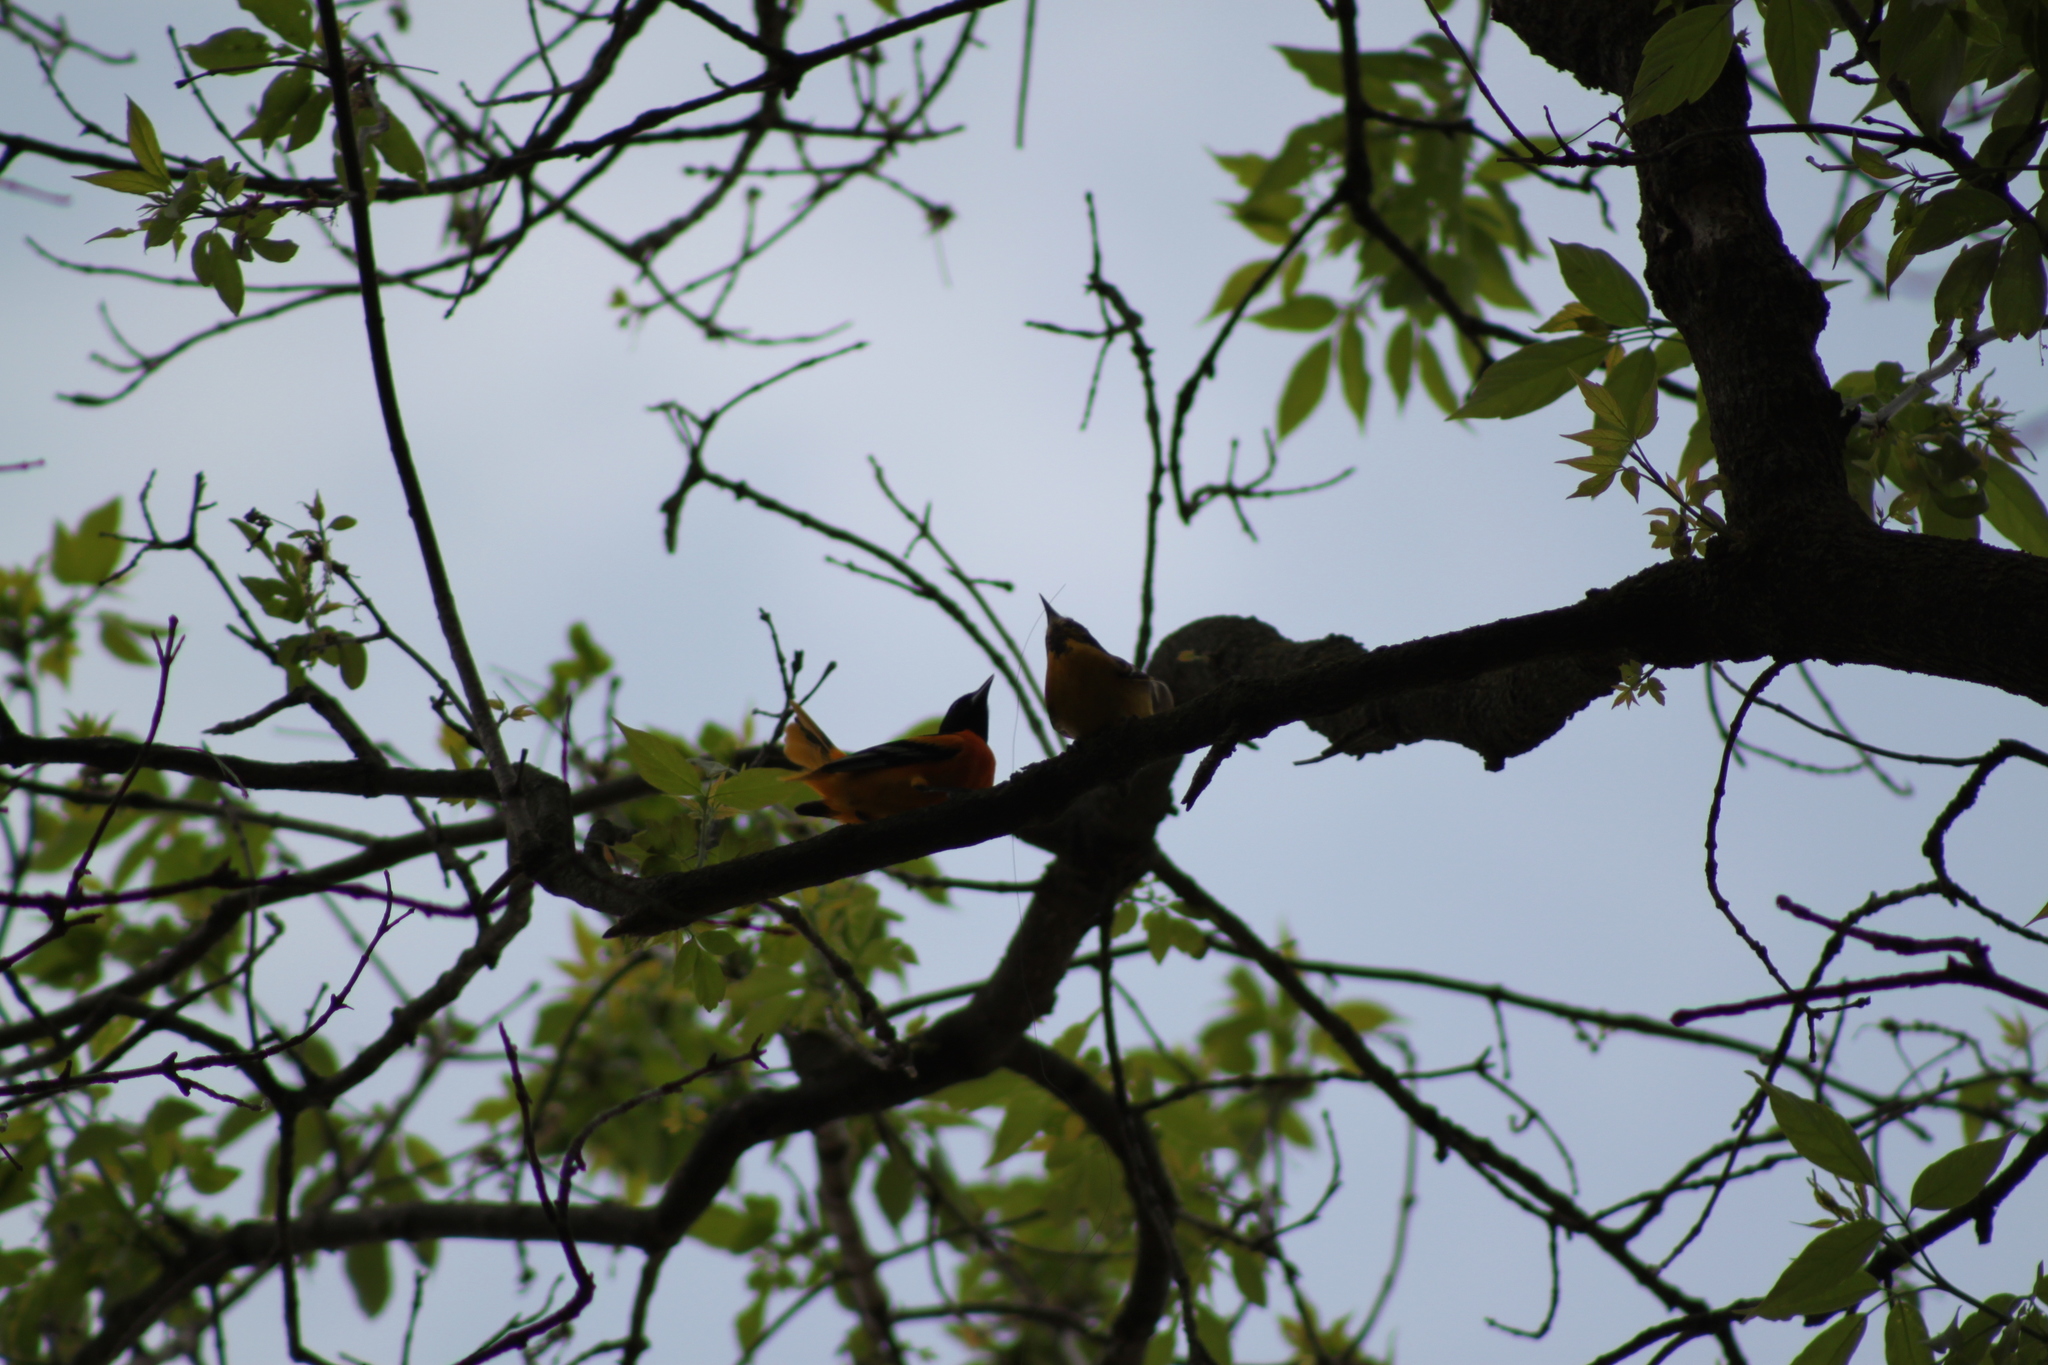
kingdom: Animalia
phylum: Chordata
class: Aves
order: Passeriformes
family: Icteridae
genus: Icterus
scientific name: Icterus galbula
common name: Baltimore oriole
